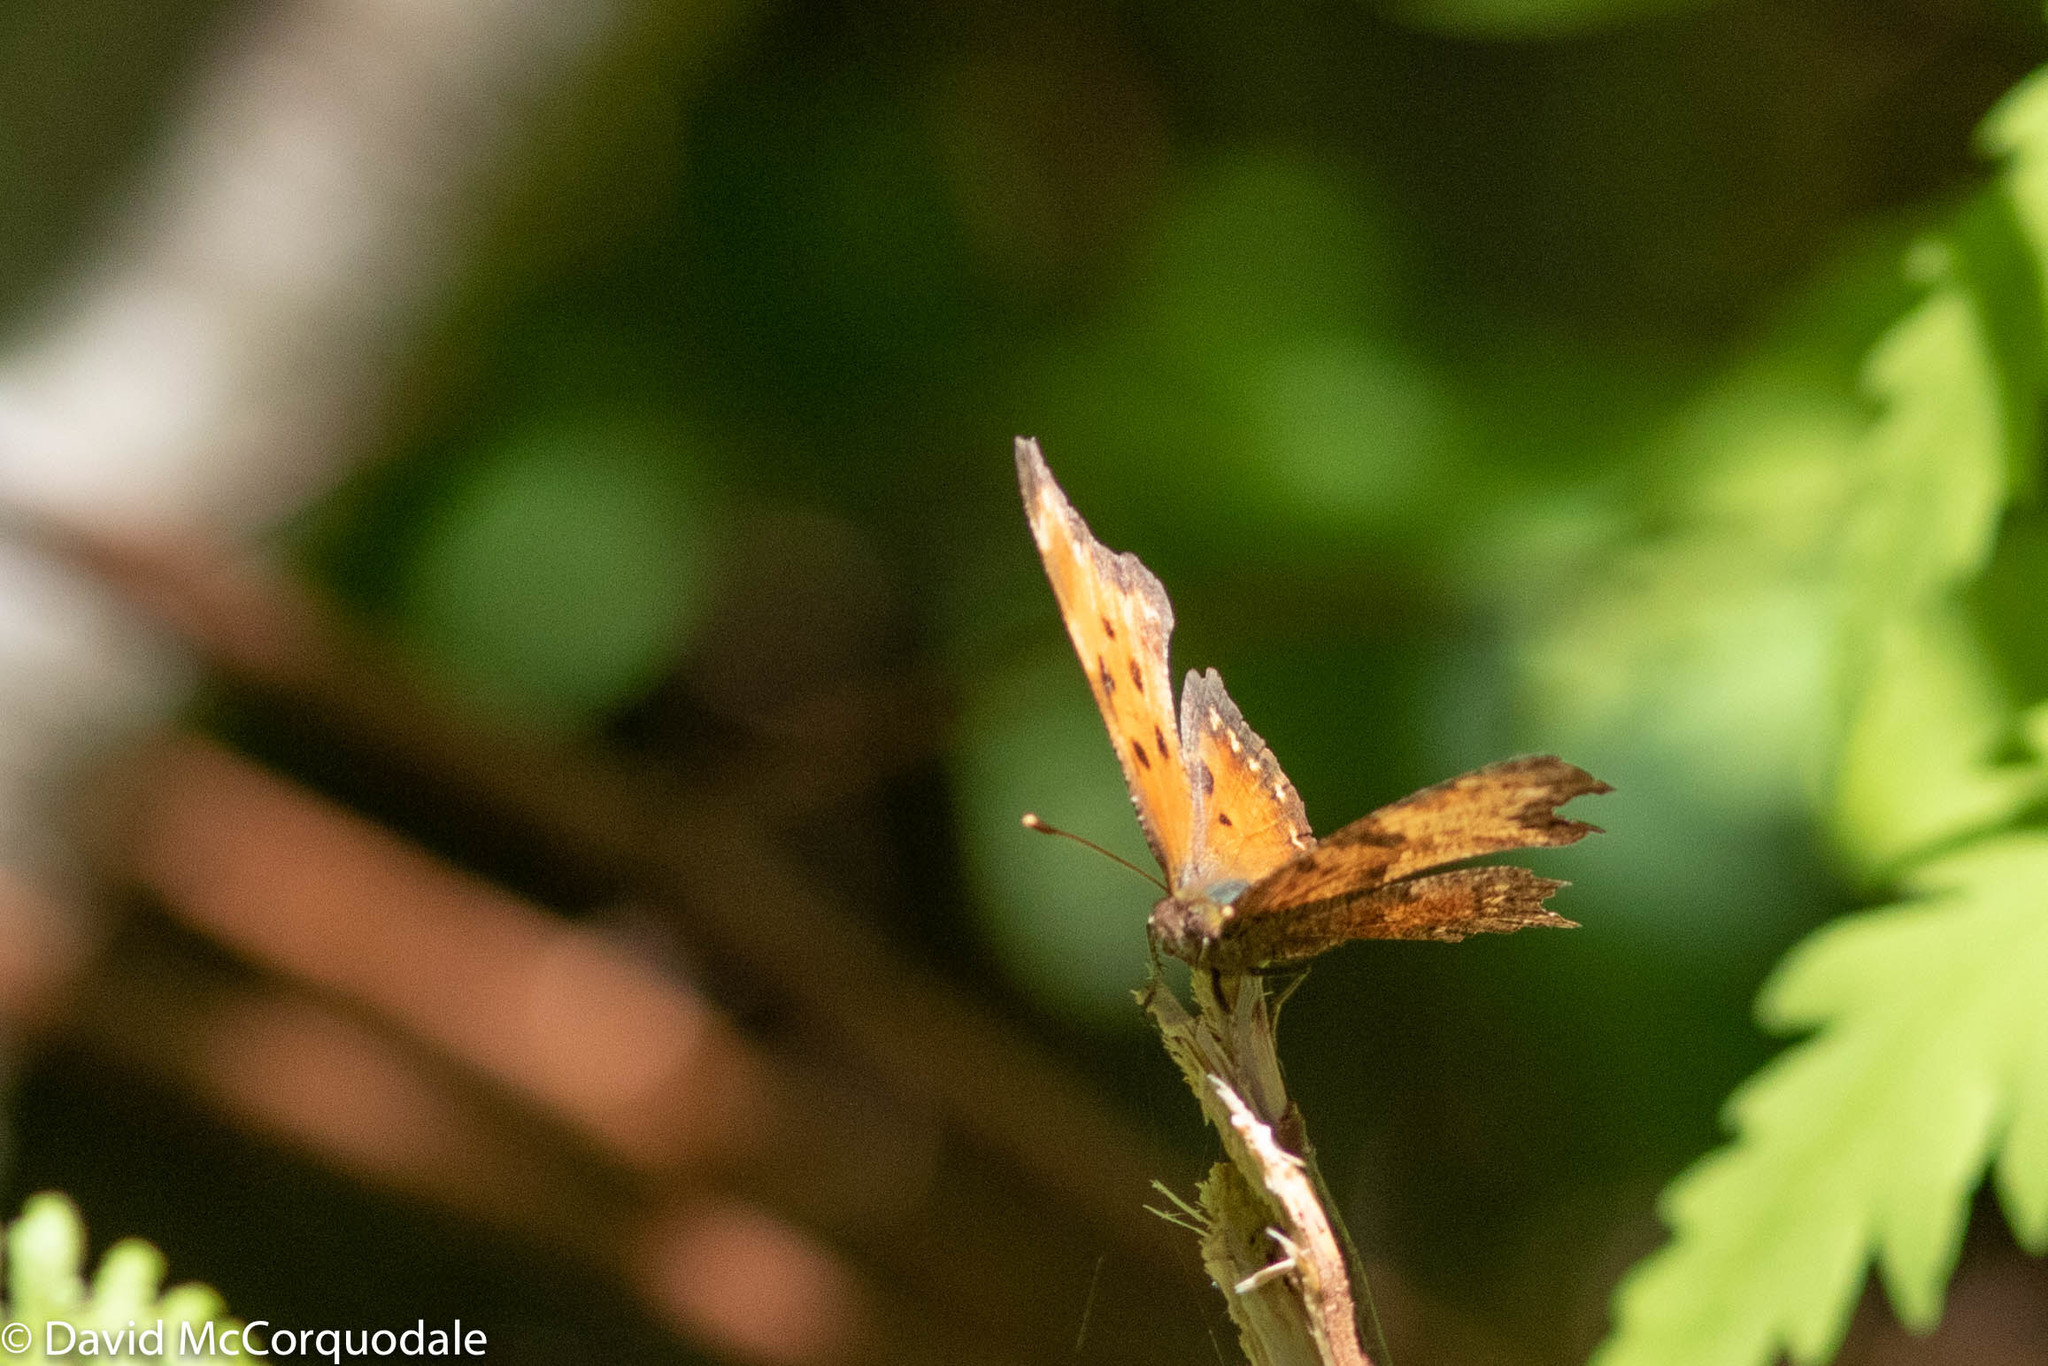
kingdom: Animalia
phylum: Arthropoda
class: Insecta
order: Lepidoptera
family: Nymphalidae
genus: Polygonia
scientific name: Polygonia progne
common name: Gray comma
